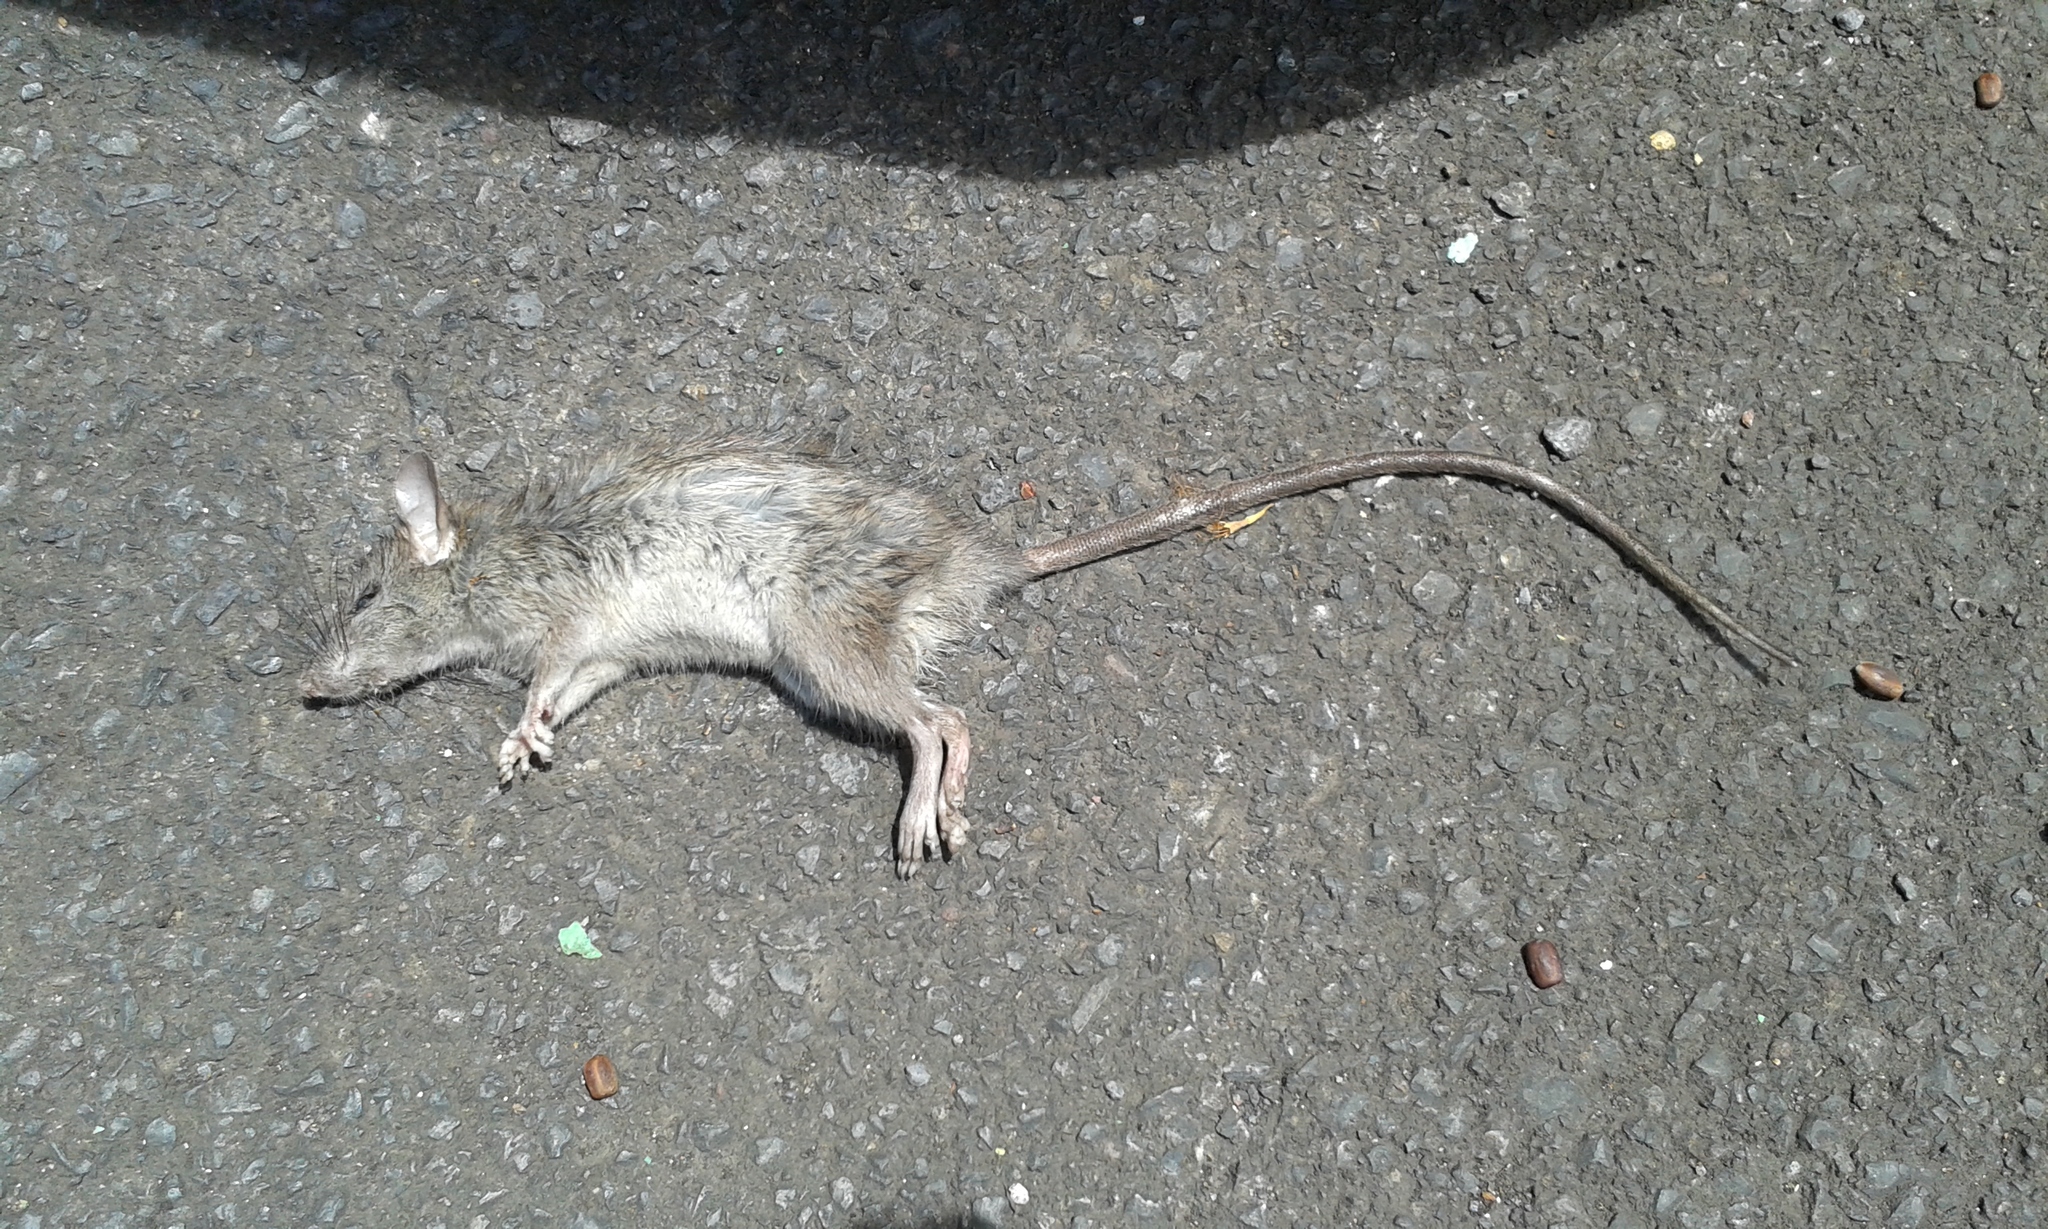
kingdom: Animalia
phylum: Chordata
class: Mammalia
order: Rodentia
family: Muridae
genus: Rattus
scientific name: Rattus rattus
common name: Black rat
